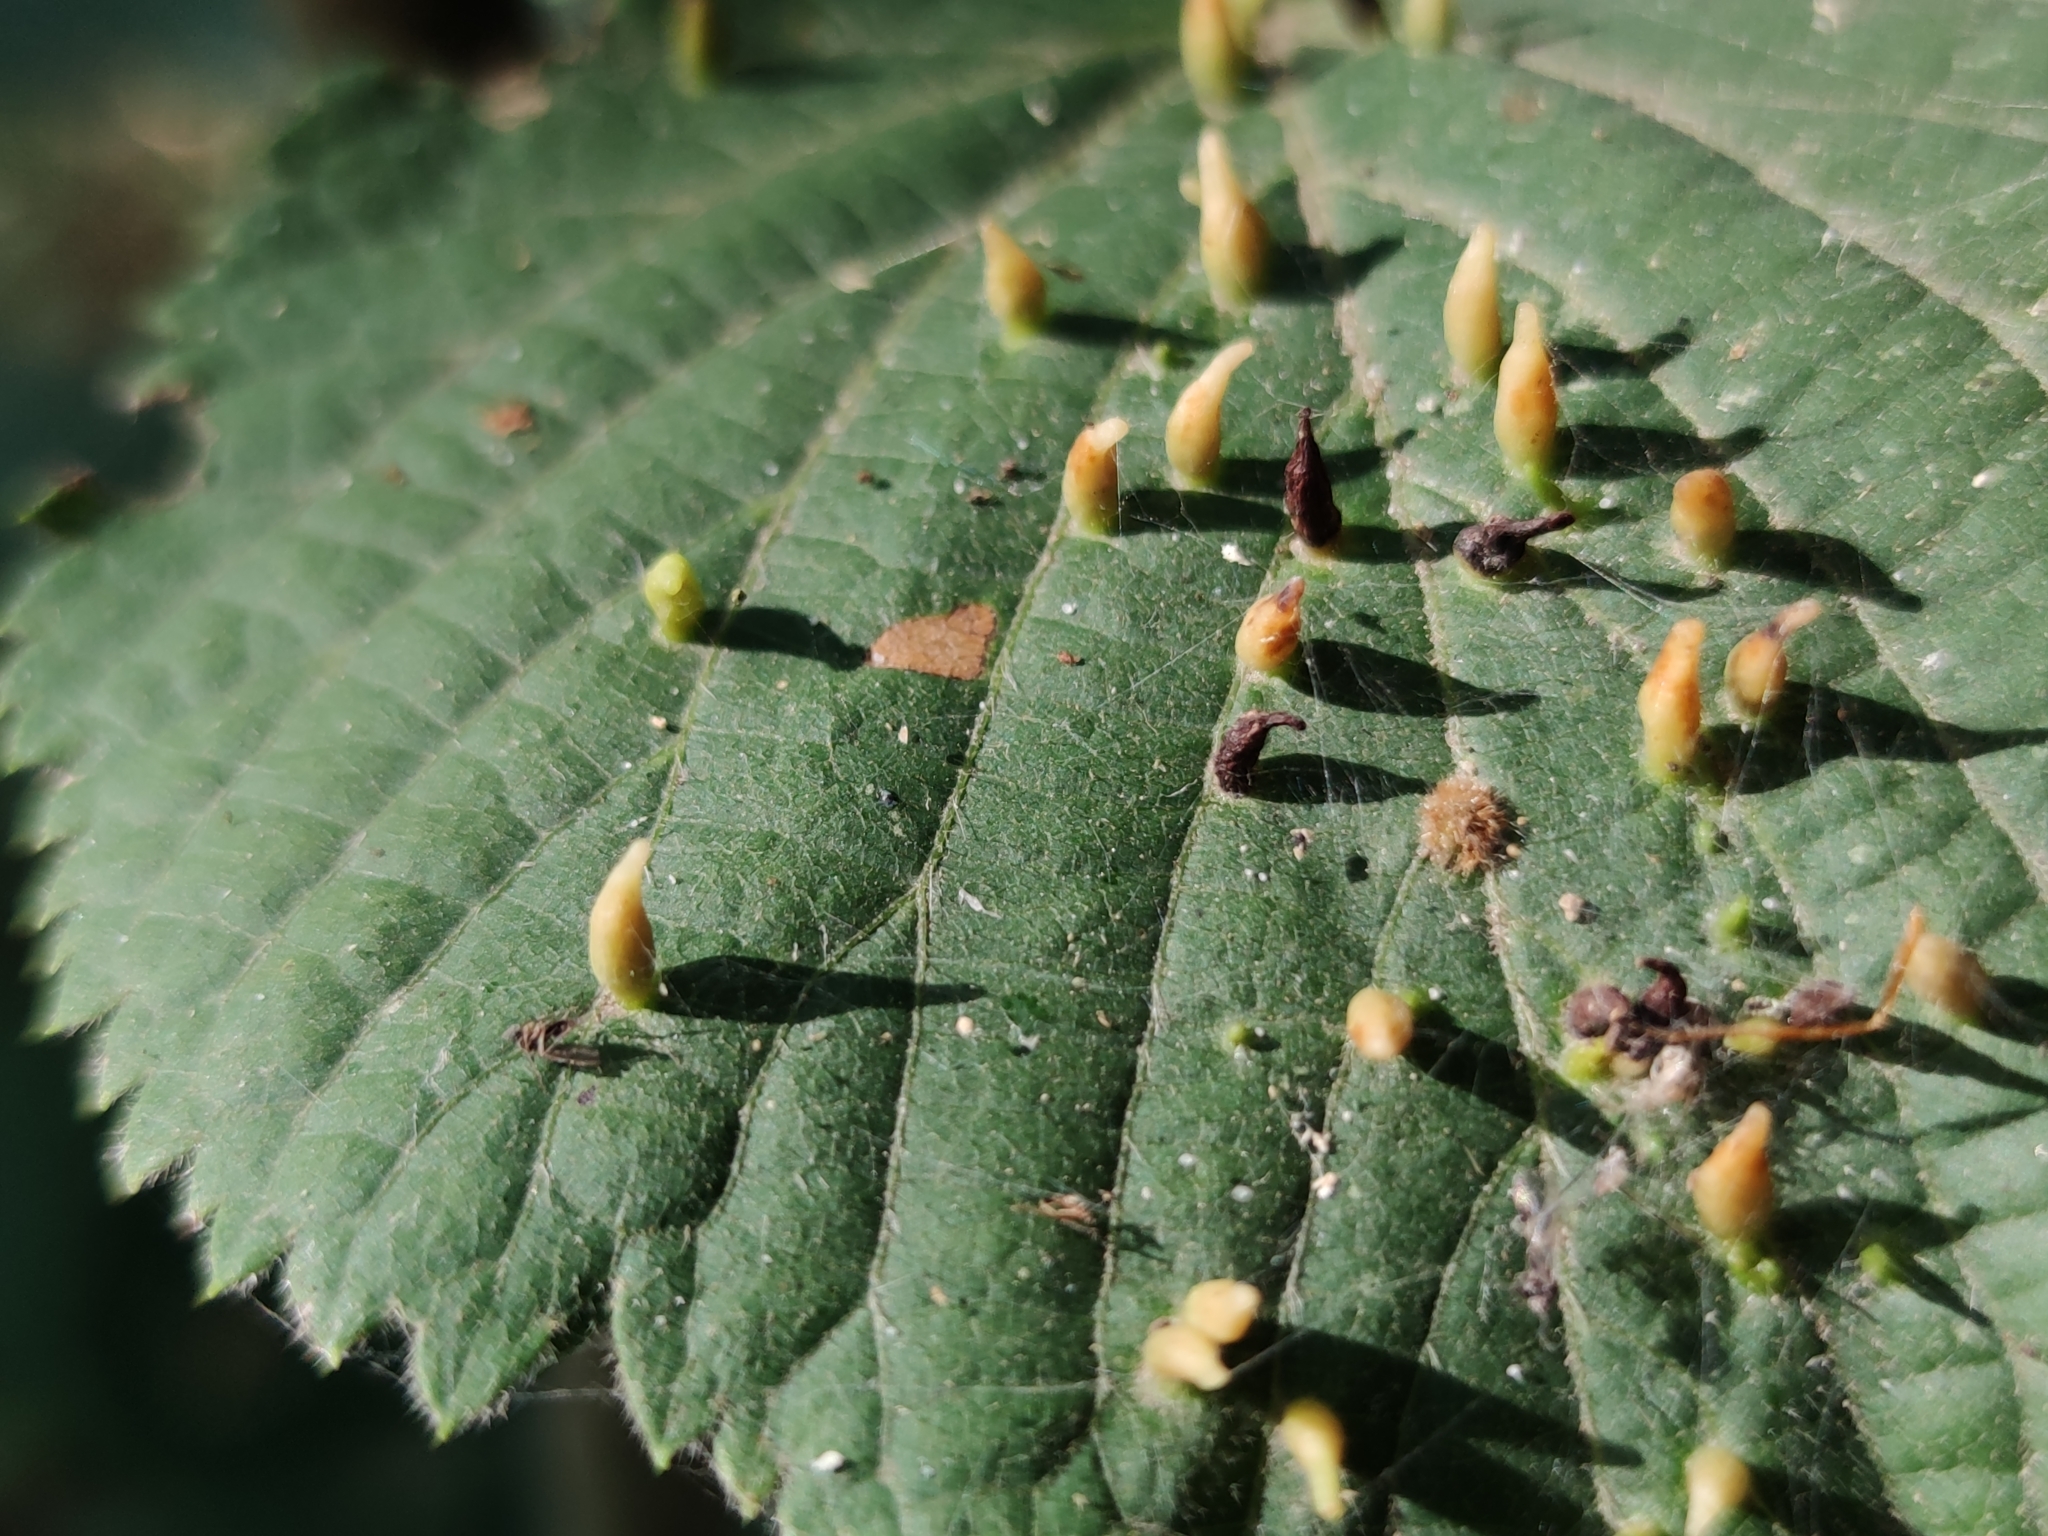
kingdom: Animalia
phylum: Arthropoda
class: Arachnida
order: Trombidiformes
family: Eriophyidae
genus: Eriophyes
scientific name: Eriophyes tiliae
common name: Red nail gall mite
